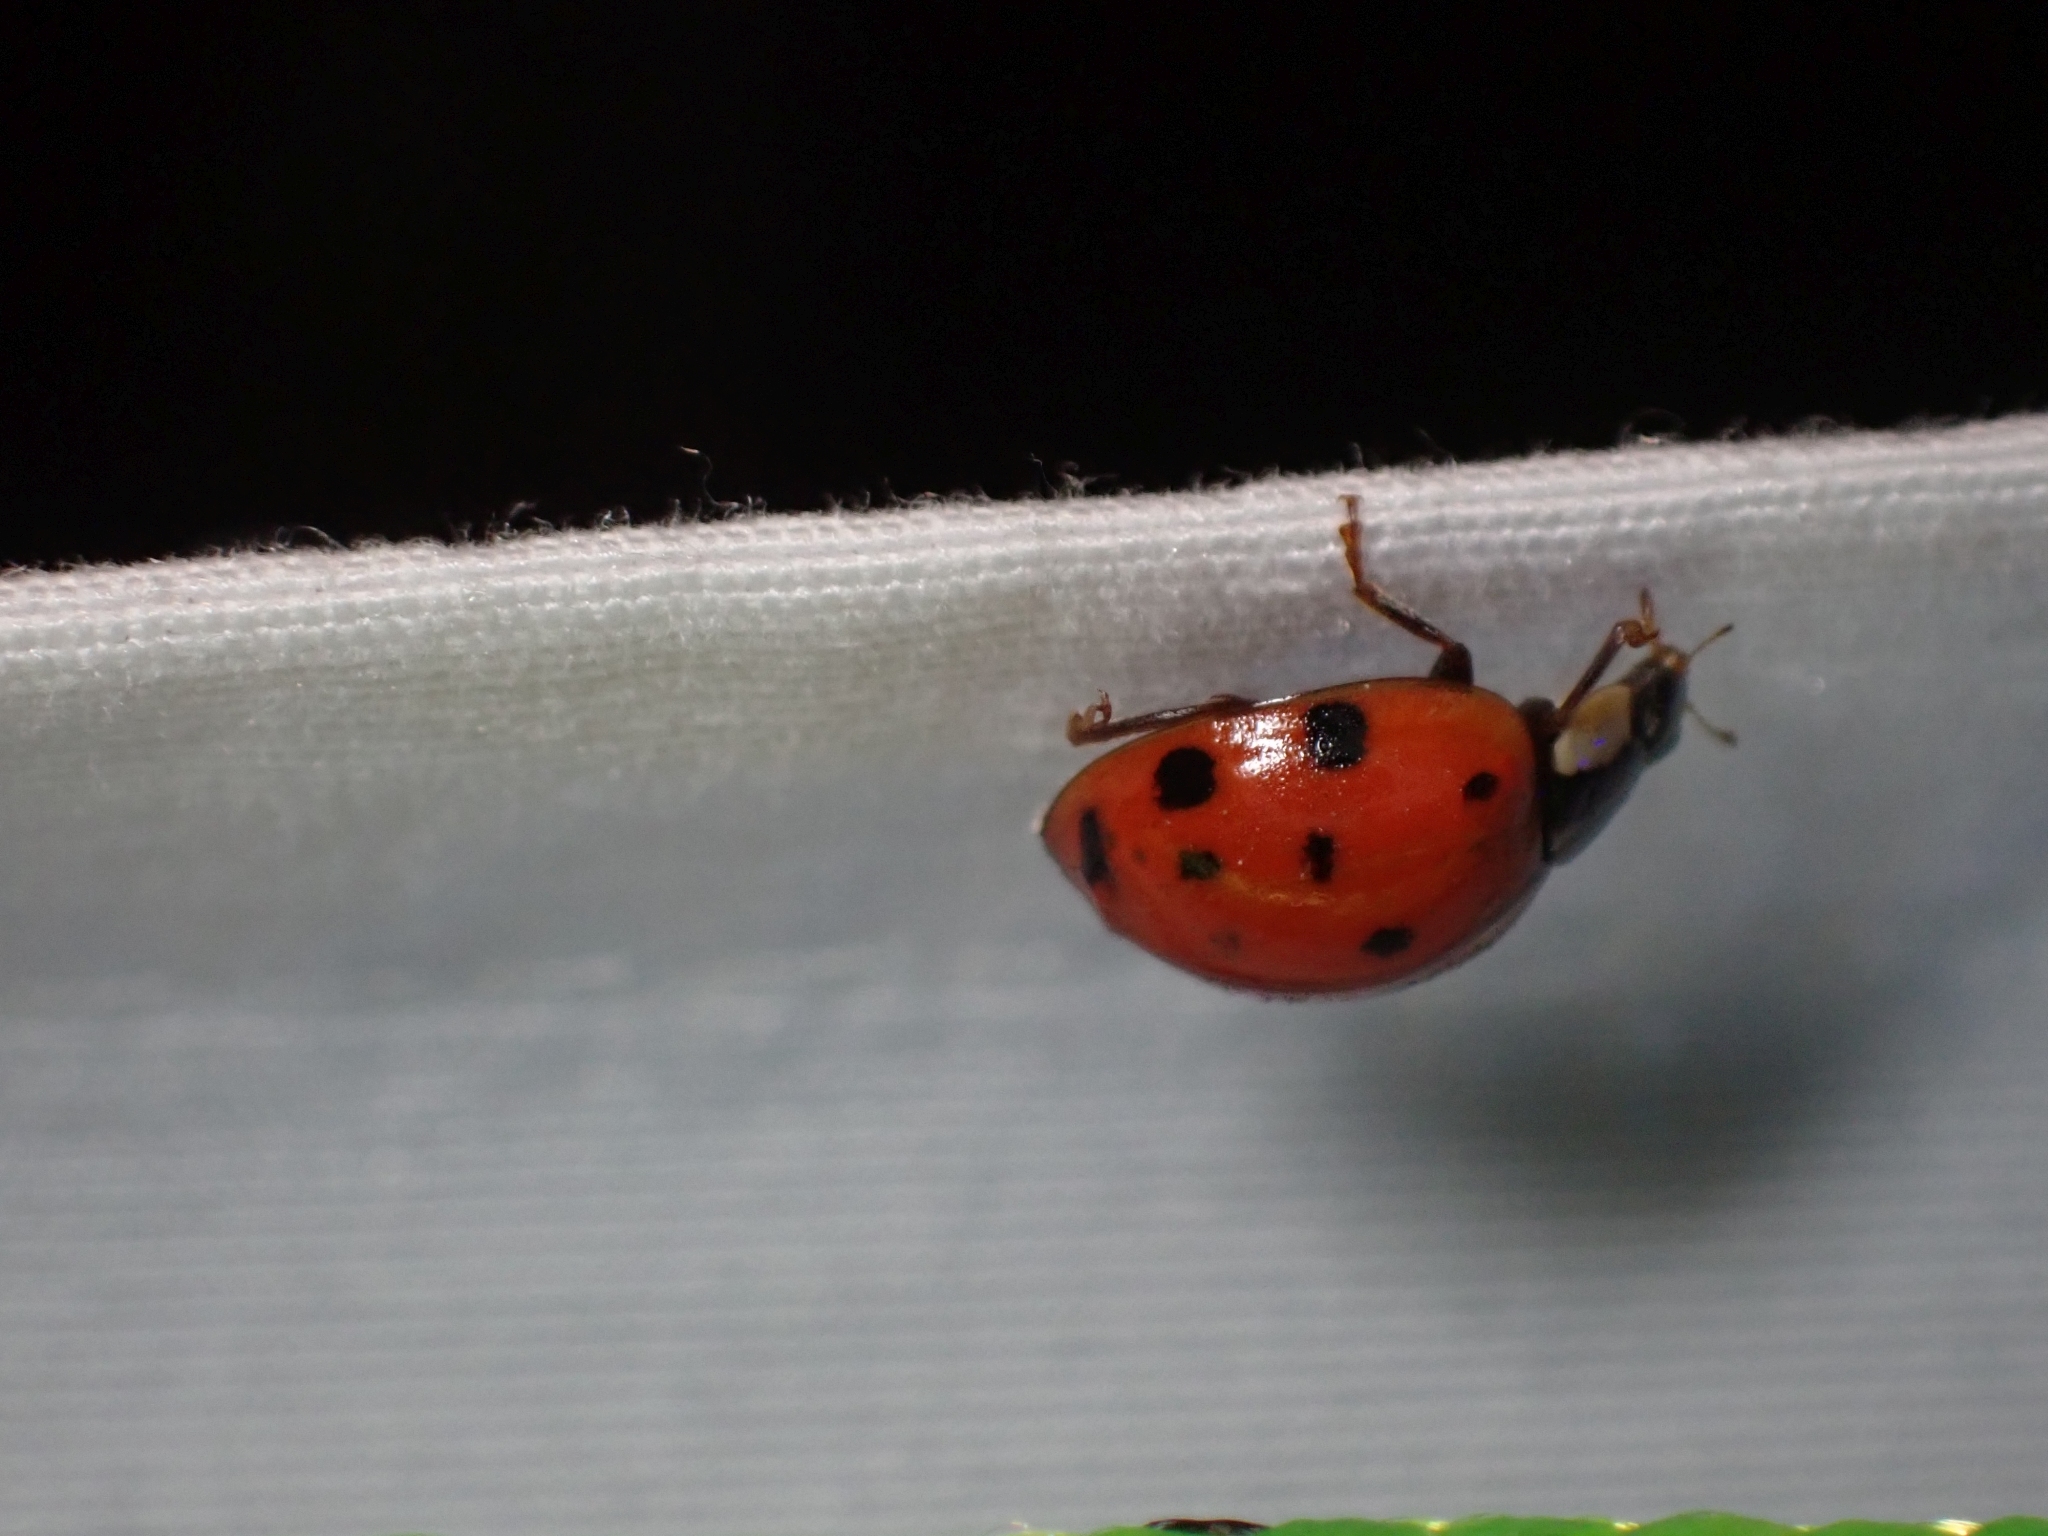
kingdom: Animalia
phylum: Arthropoda
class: Insecta
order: Coleoptera
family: Coccinellidae
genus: Harmonia
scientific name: Harmonia axyridis
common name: Harlequin ladybird
